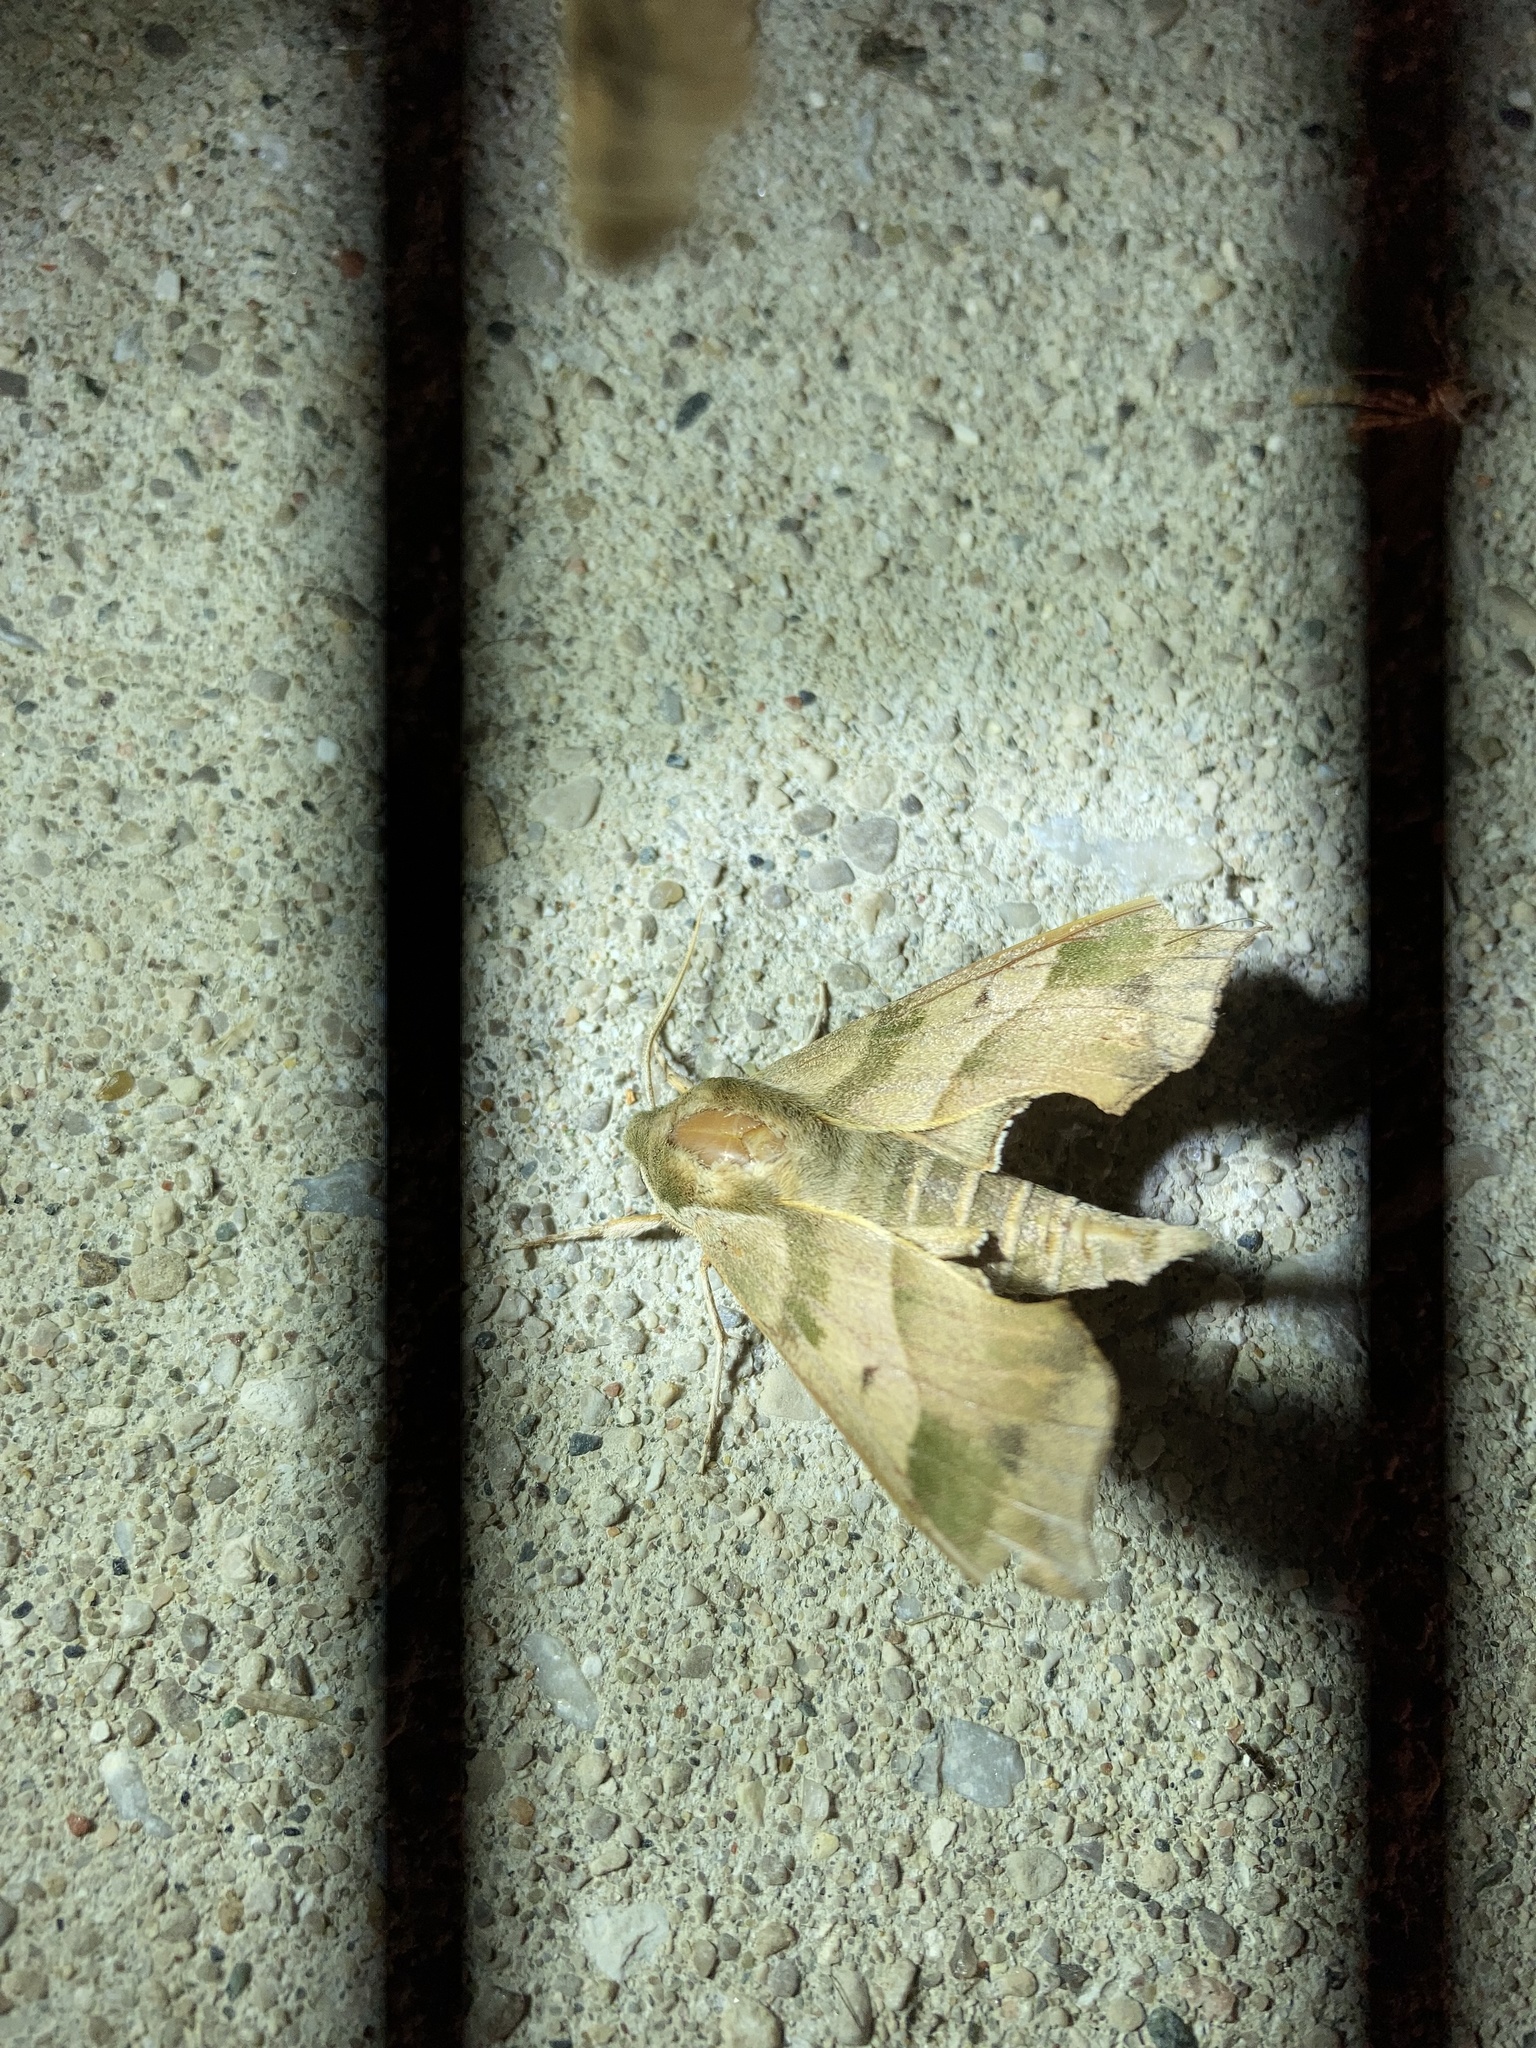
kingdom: Animalia
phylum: Arthropoda
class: Insecta
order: Lepidoptera
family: Sphingidae
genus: Darapsa
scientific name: Darapsa myron
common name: Hog sphinx
